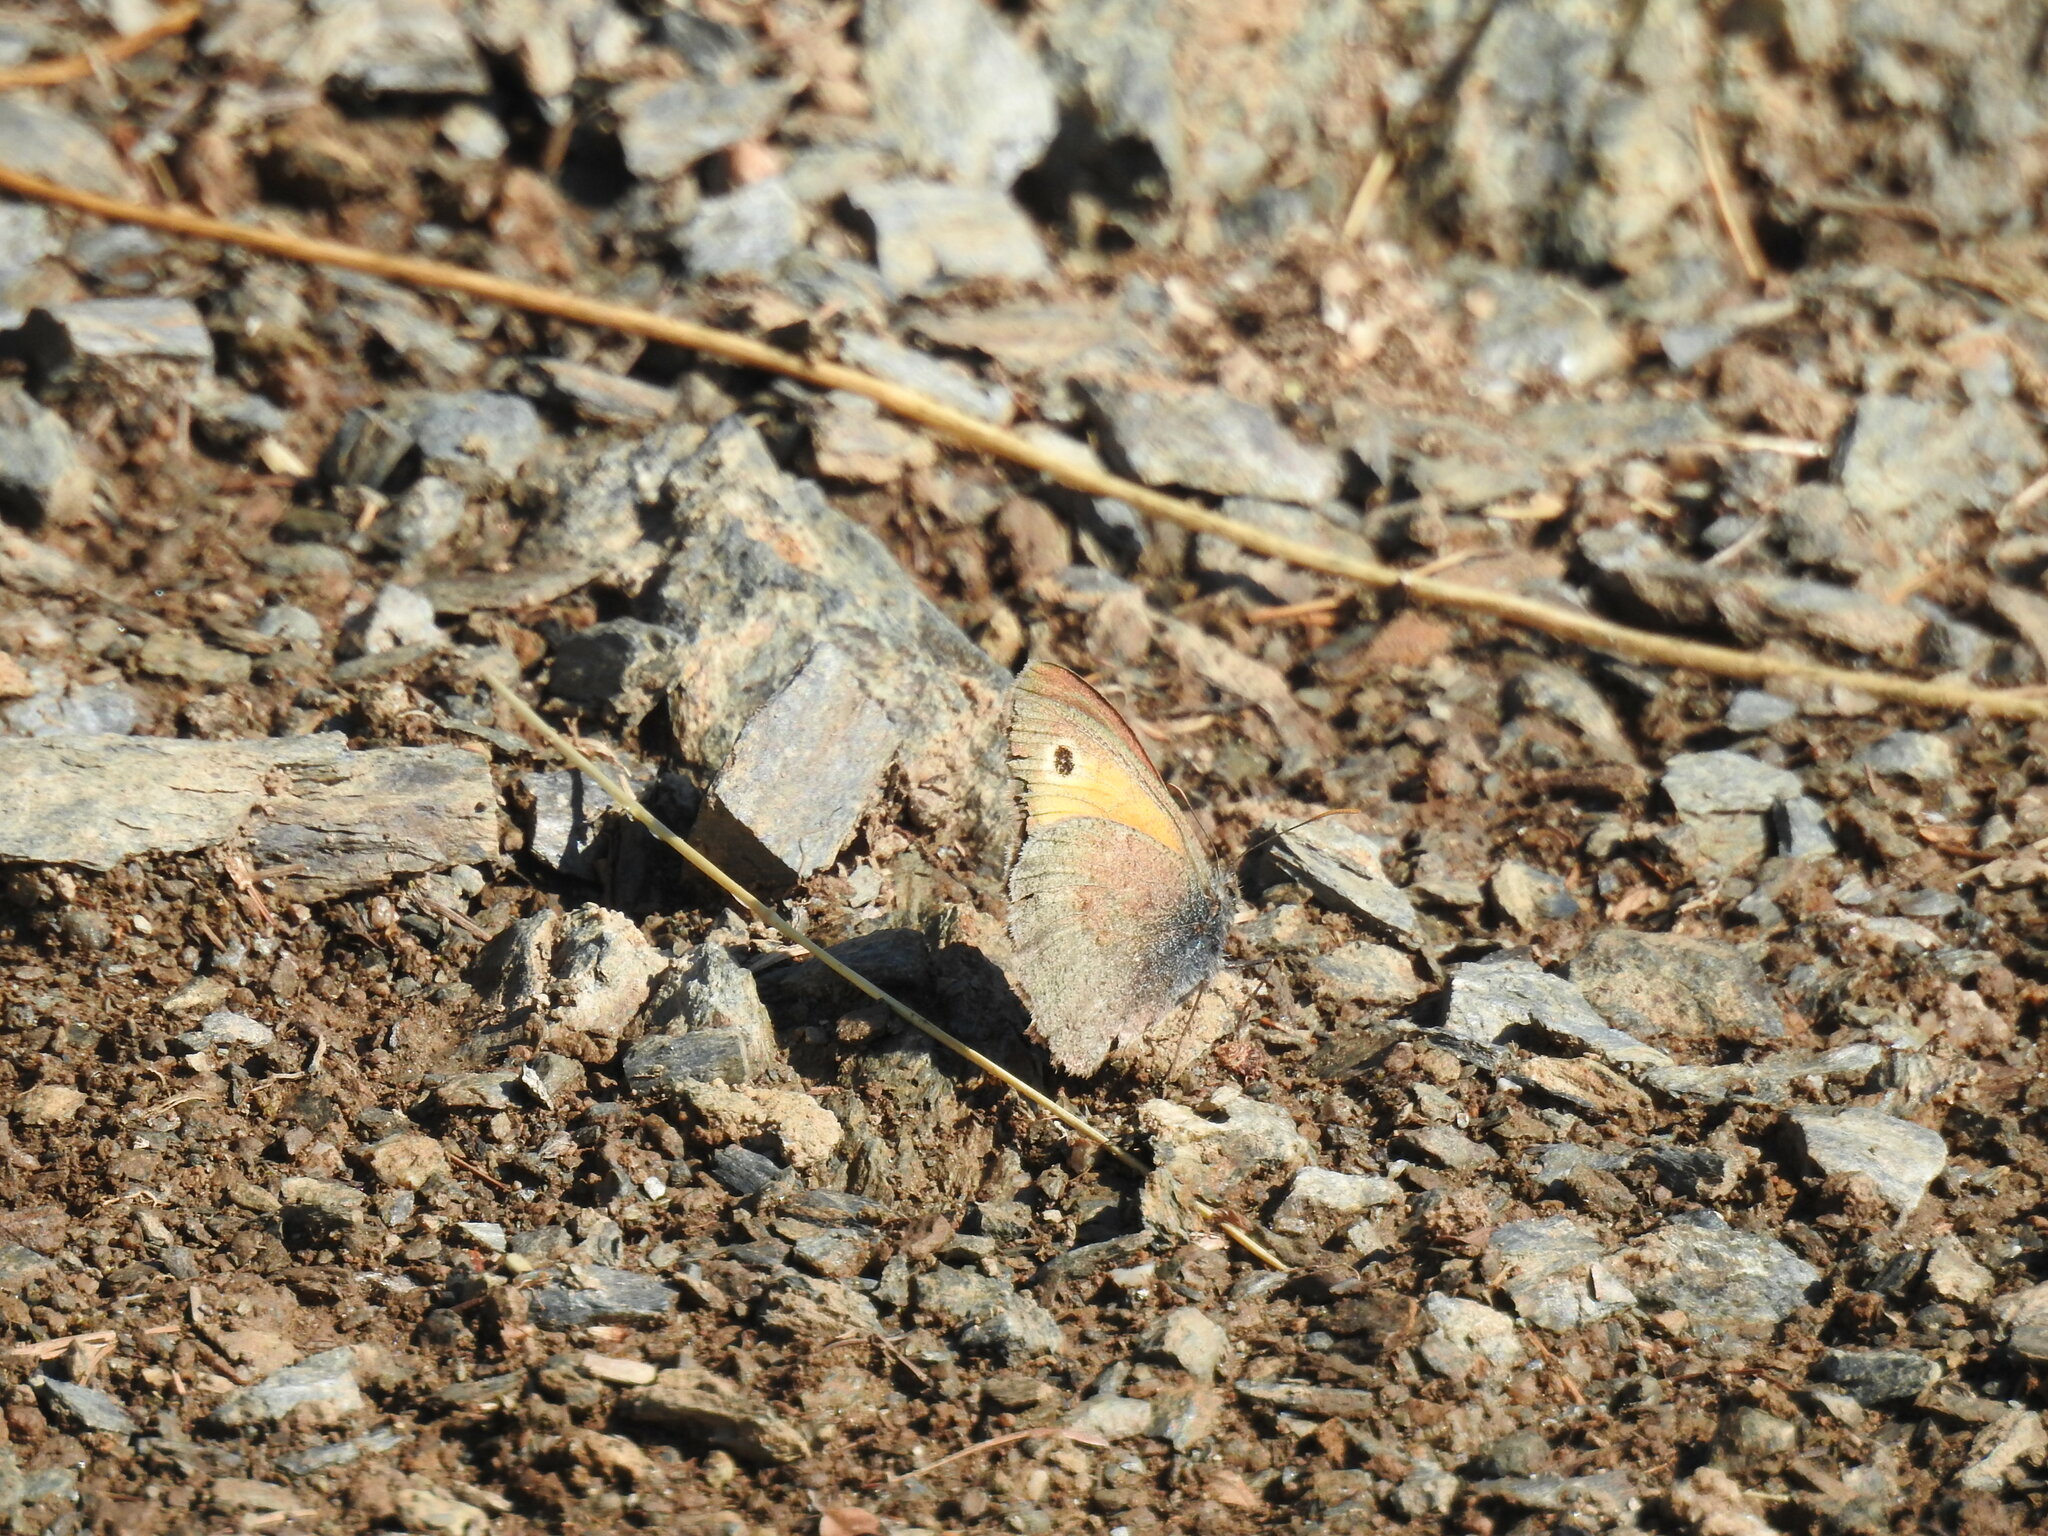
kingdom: Animalia
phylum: Arthropoda
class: Insecta
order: Lepidoptera
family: Nymphalidae
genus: Coenonympha
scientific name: Coenonympha pamphilus
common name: Small heath
